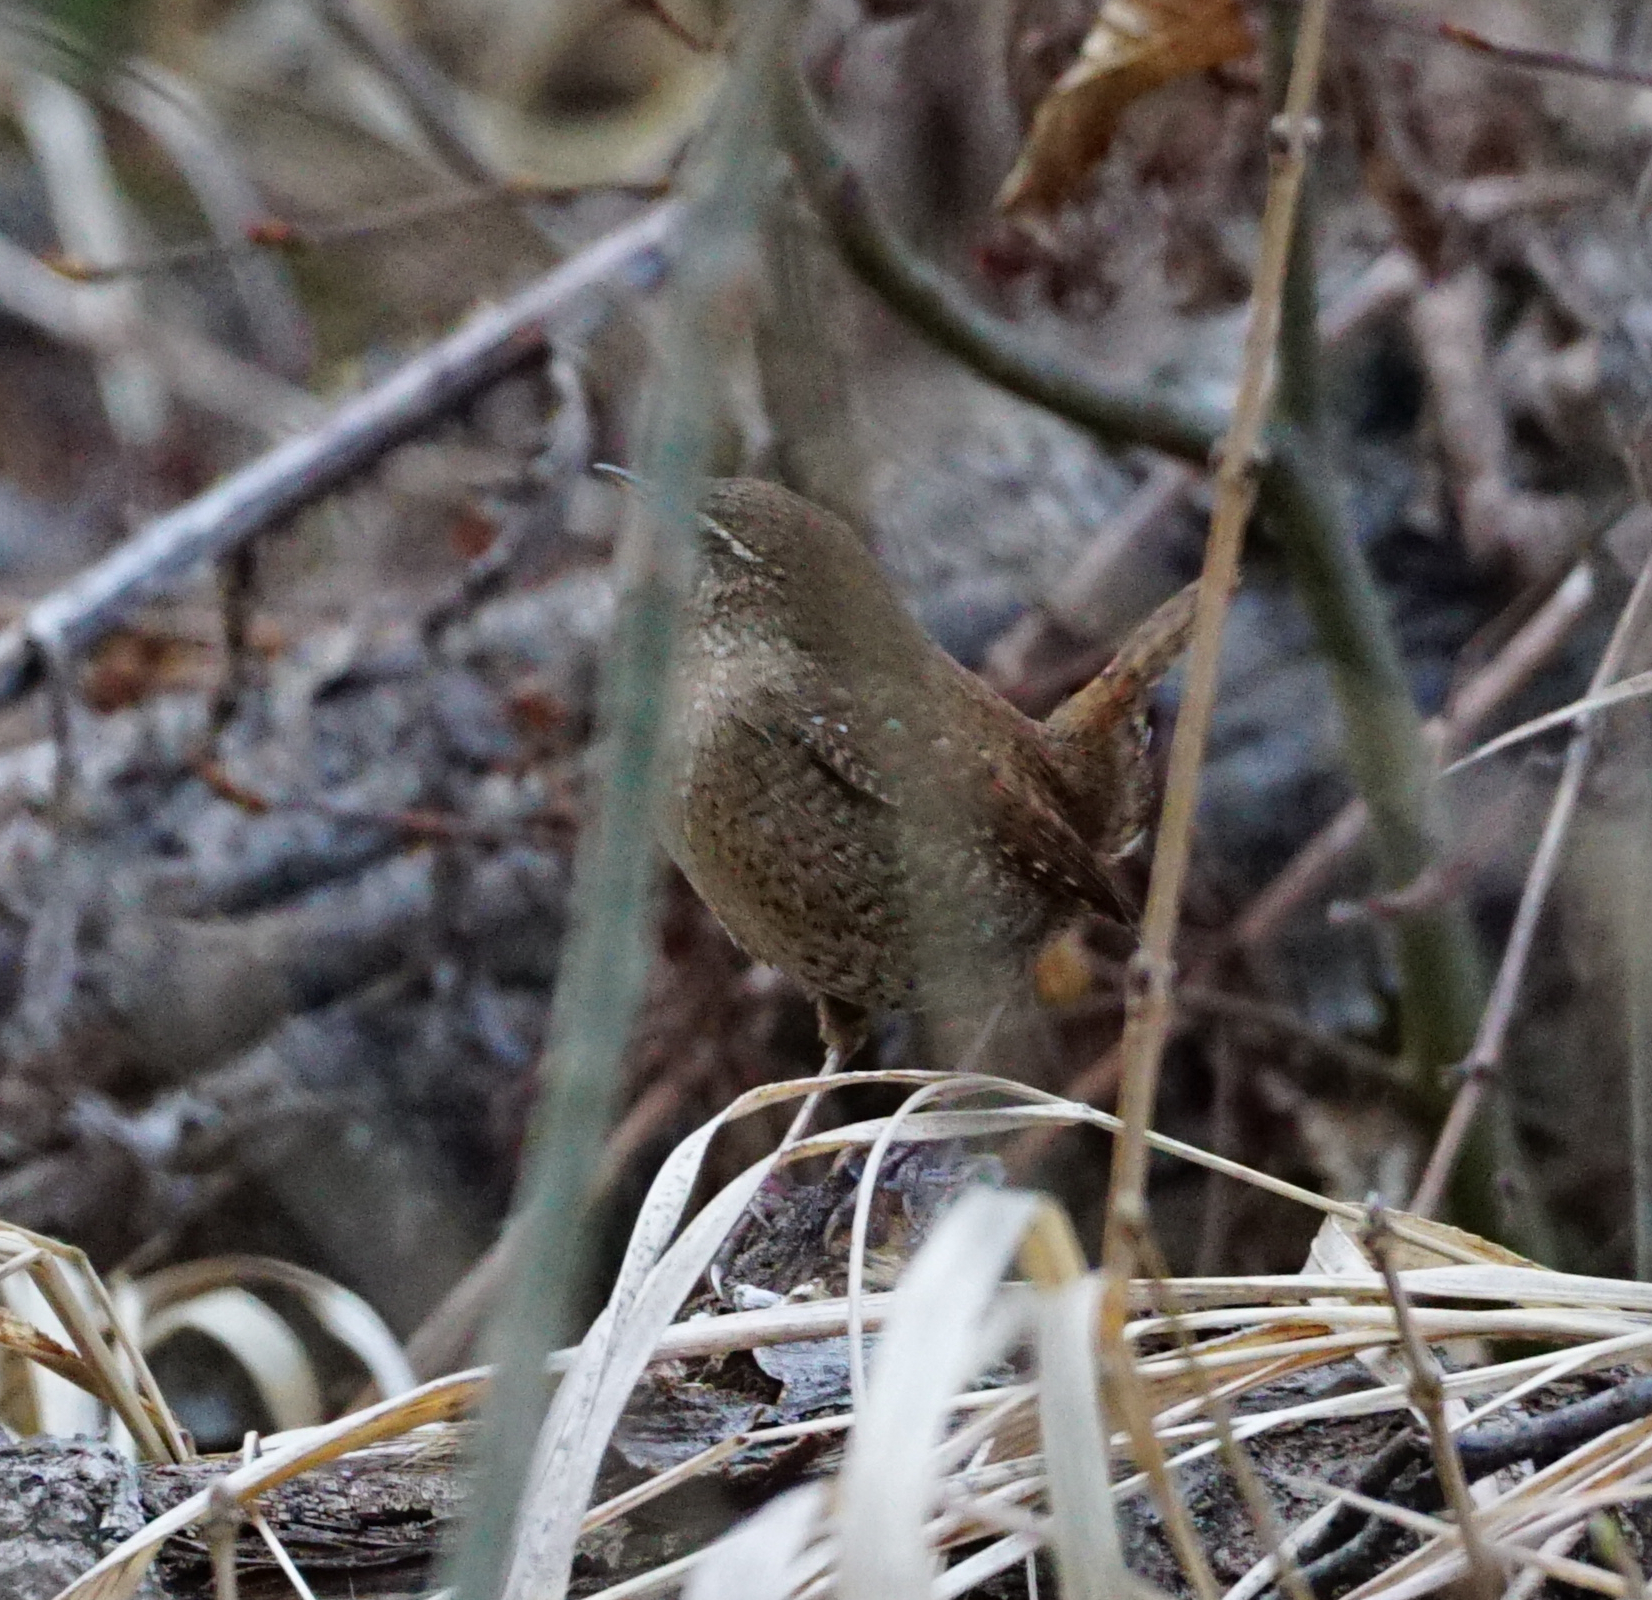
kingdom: Animalia
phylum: Chordata
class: Aves
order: Passeriformes
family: Troglodytidae
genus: Troglodytes
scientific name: Troglodytes troglodytes
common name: Eurasian wren
